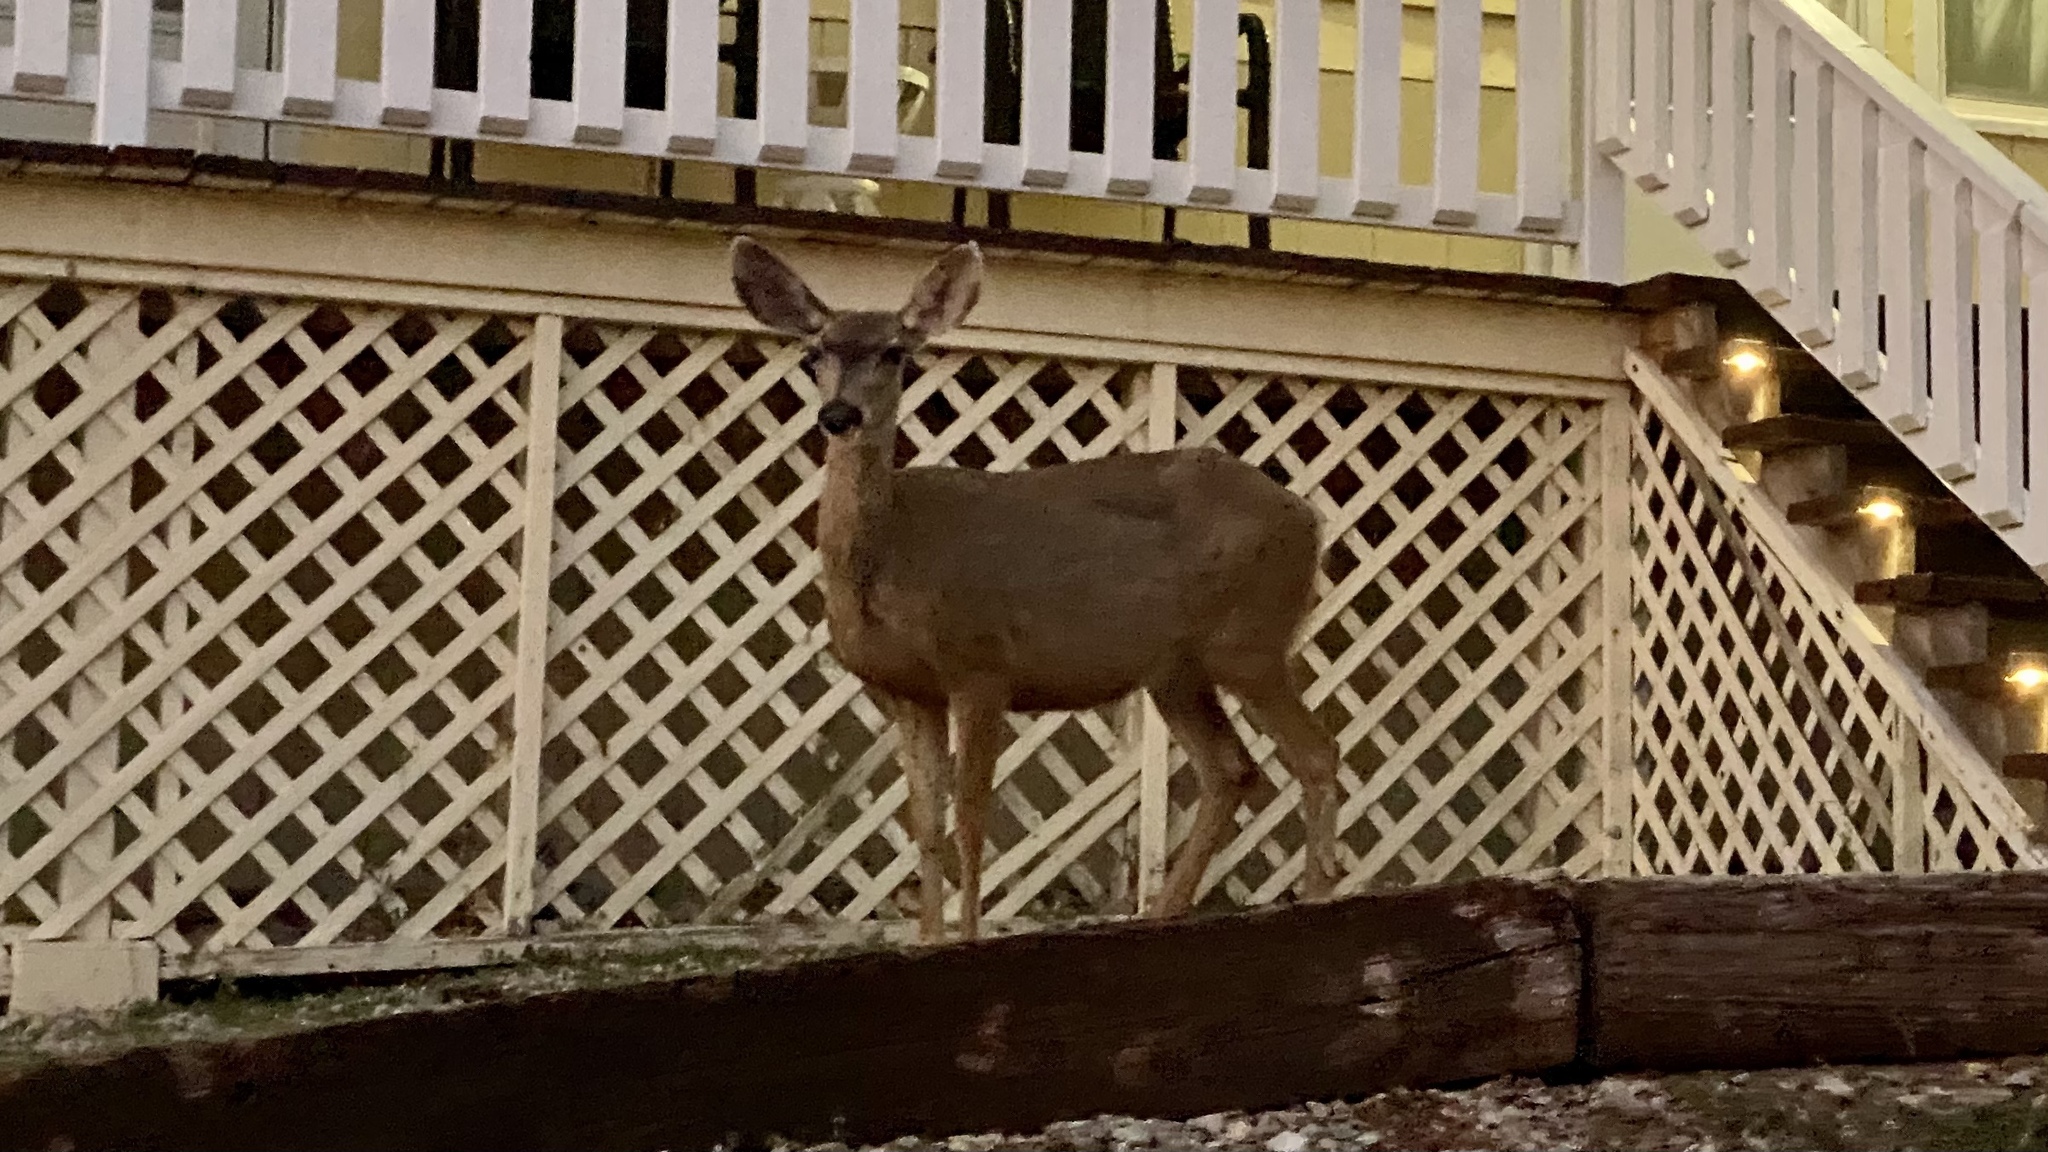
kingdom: Animalia
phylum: Chordata
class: Mammalia
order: Artiodactyla
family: Cervidae
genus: Odocoileus
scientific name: Odocoileus hemionus
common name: Mule deer
